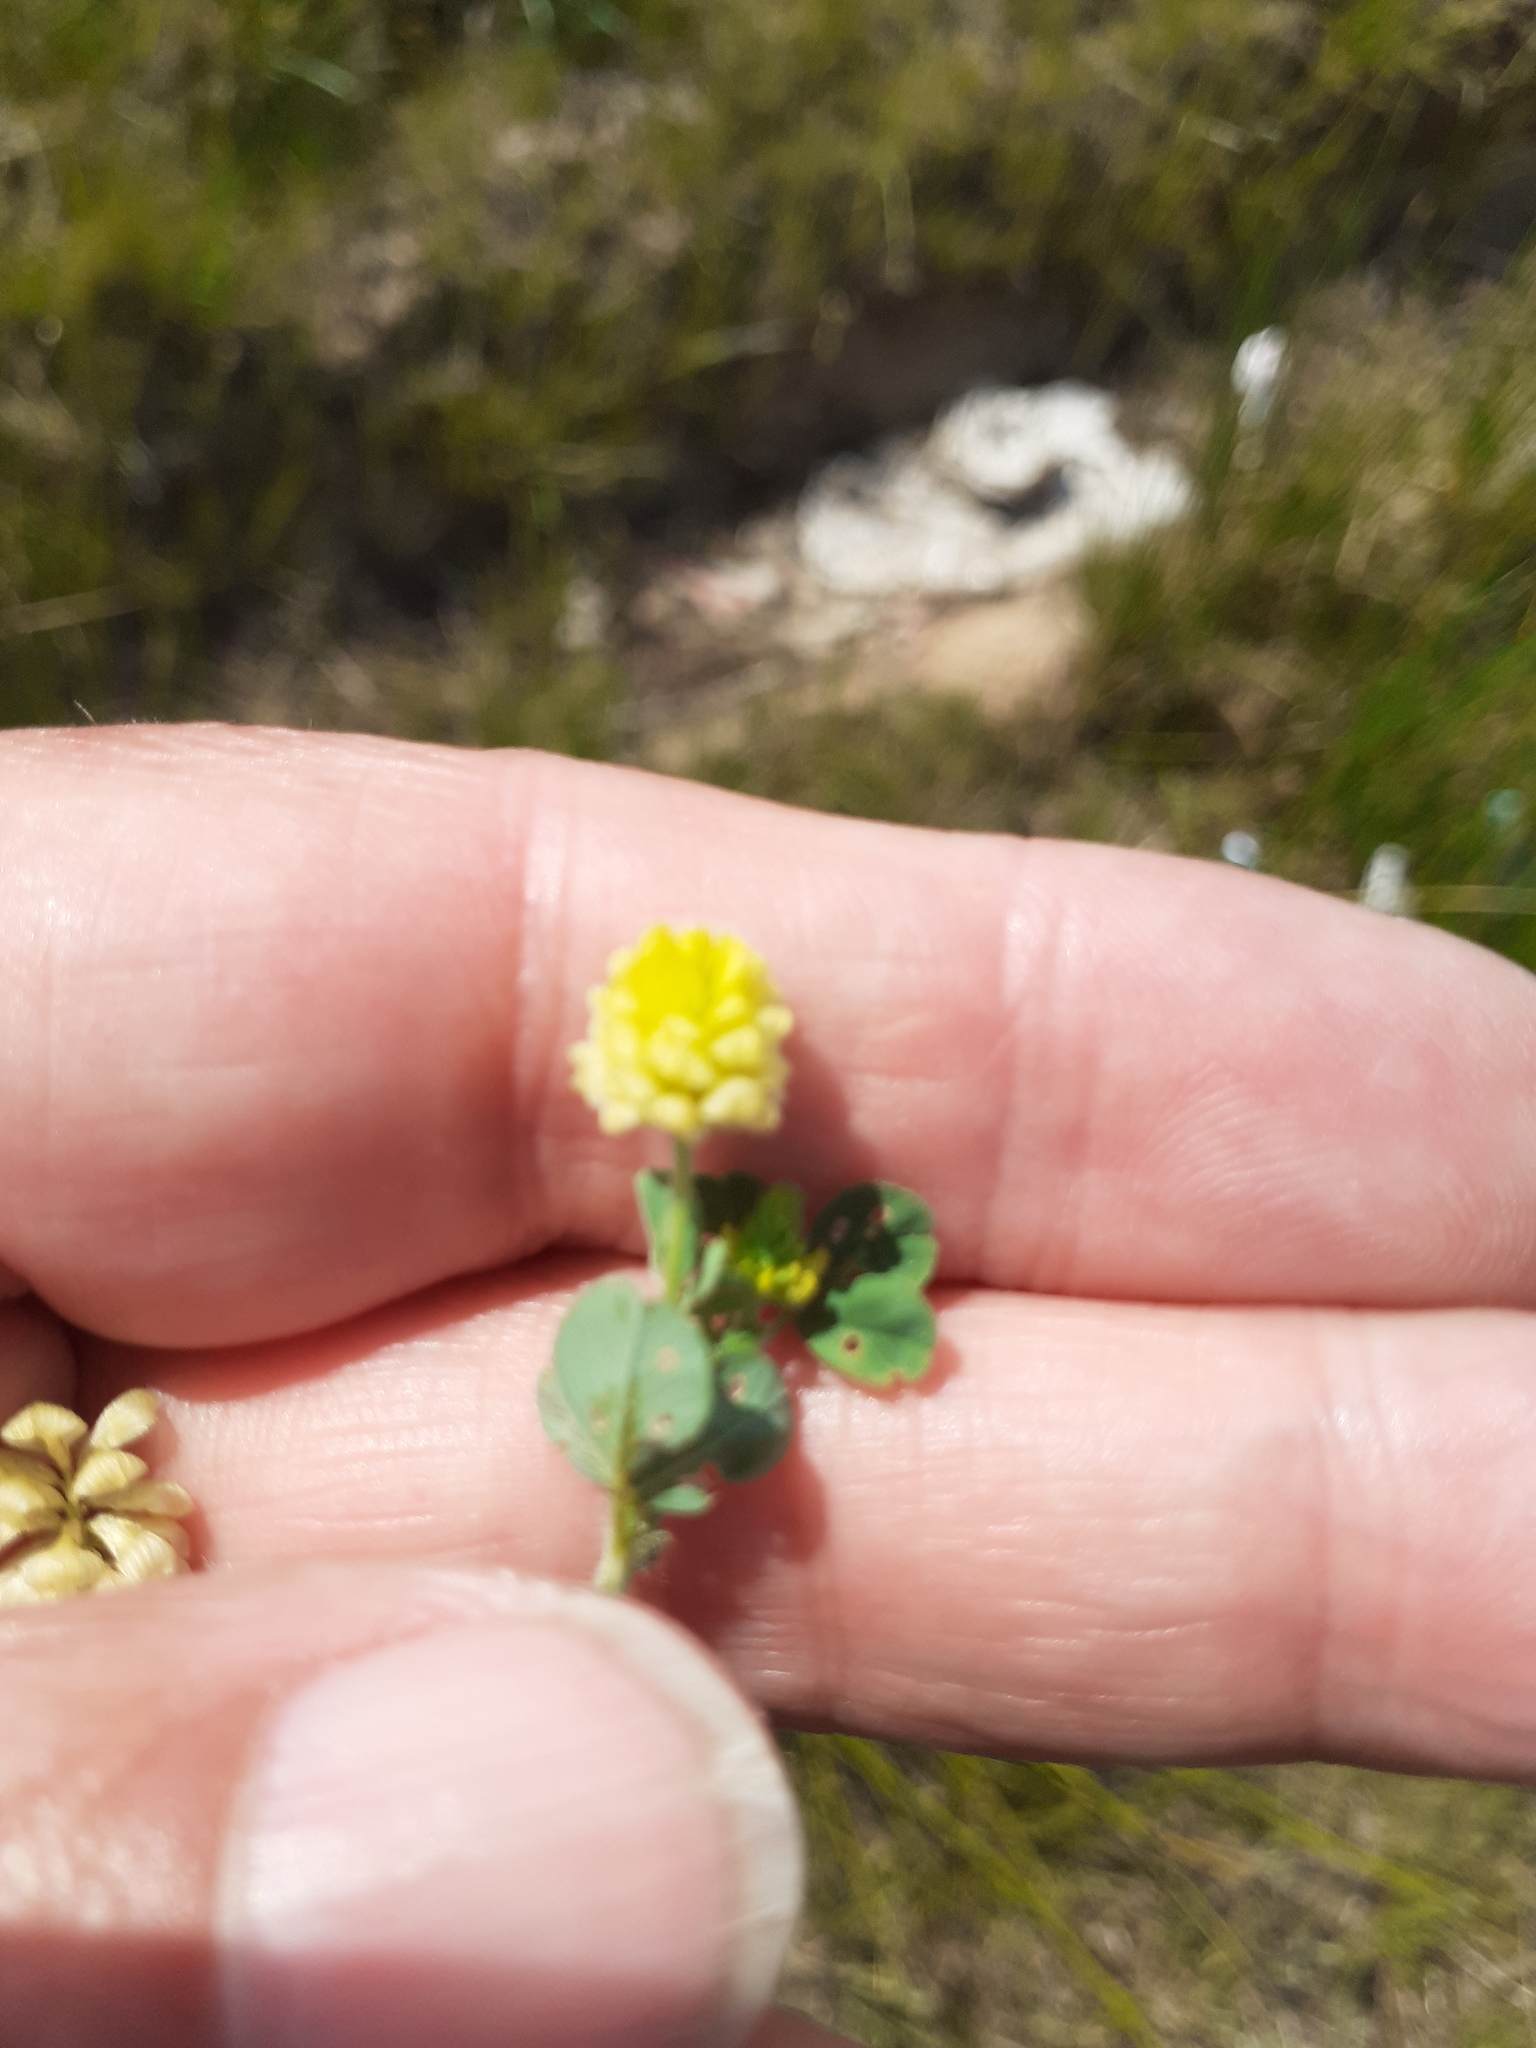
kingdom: Plantae
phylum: Tracheophyta
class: Magnoliopsida
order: Fabales
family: Fabaceae
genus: Trifolium
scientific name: Trifolium campestre
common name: Field clover
